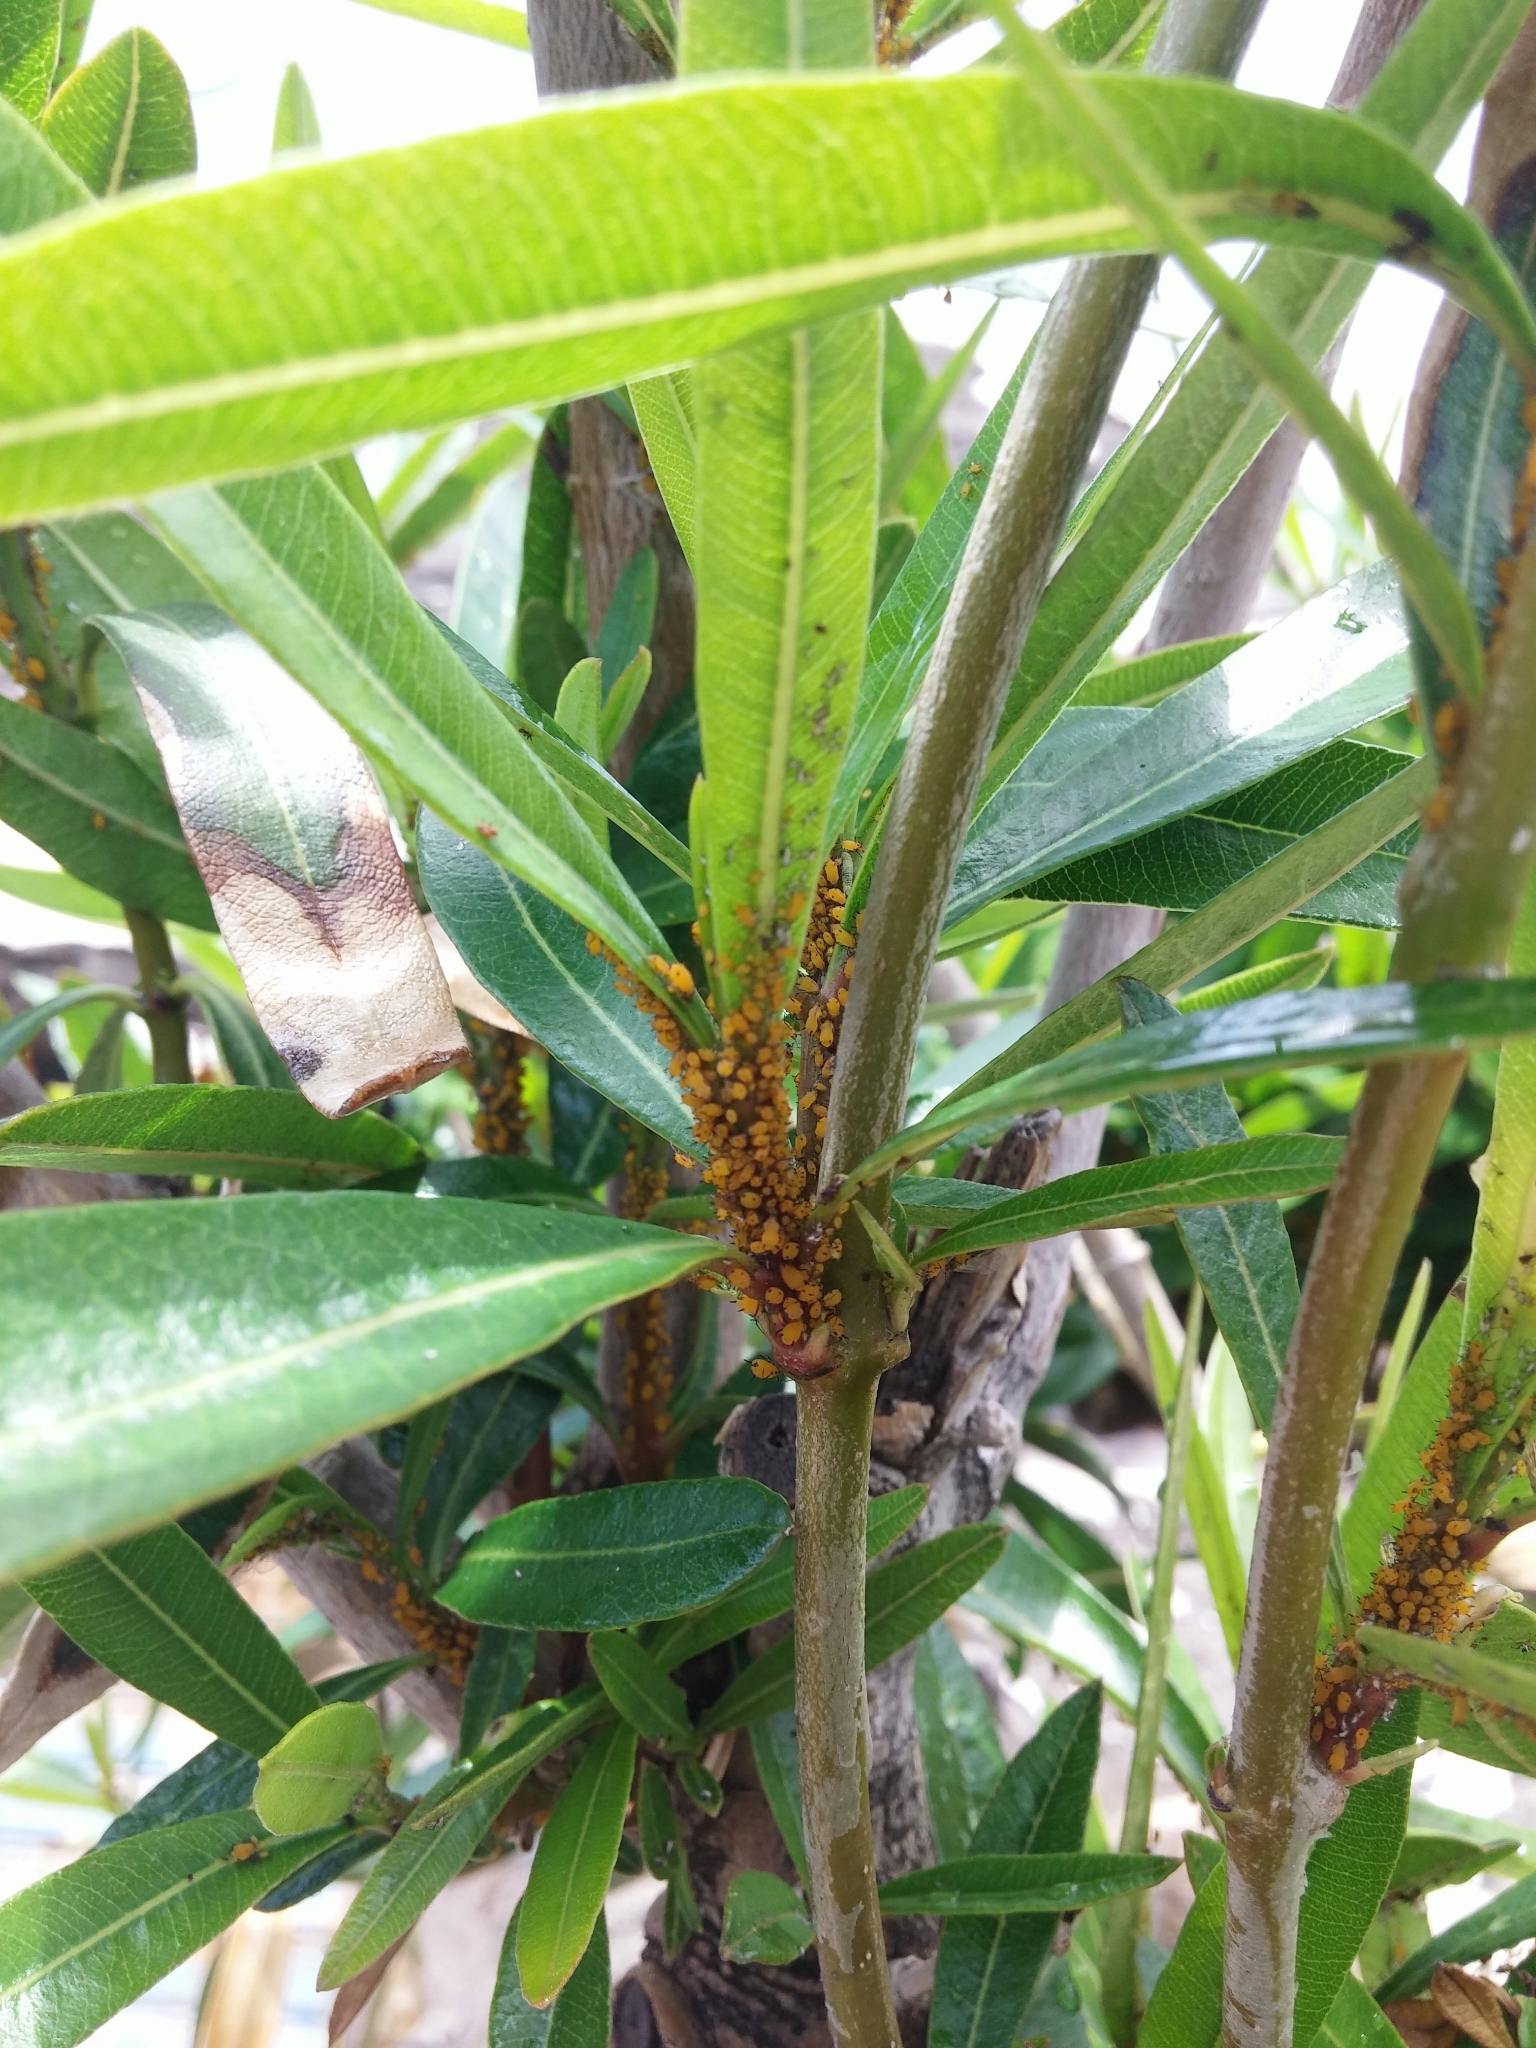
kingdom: Animalia
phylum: Arthropoda
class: Insecta
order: Hemiptera
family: Aphididae
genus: Aphis
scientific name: Aphis nerii
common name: Oleander aphid
